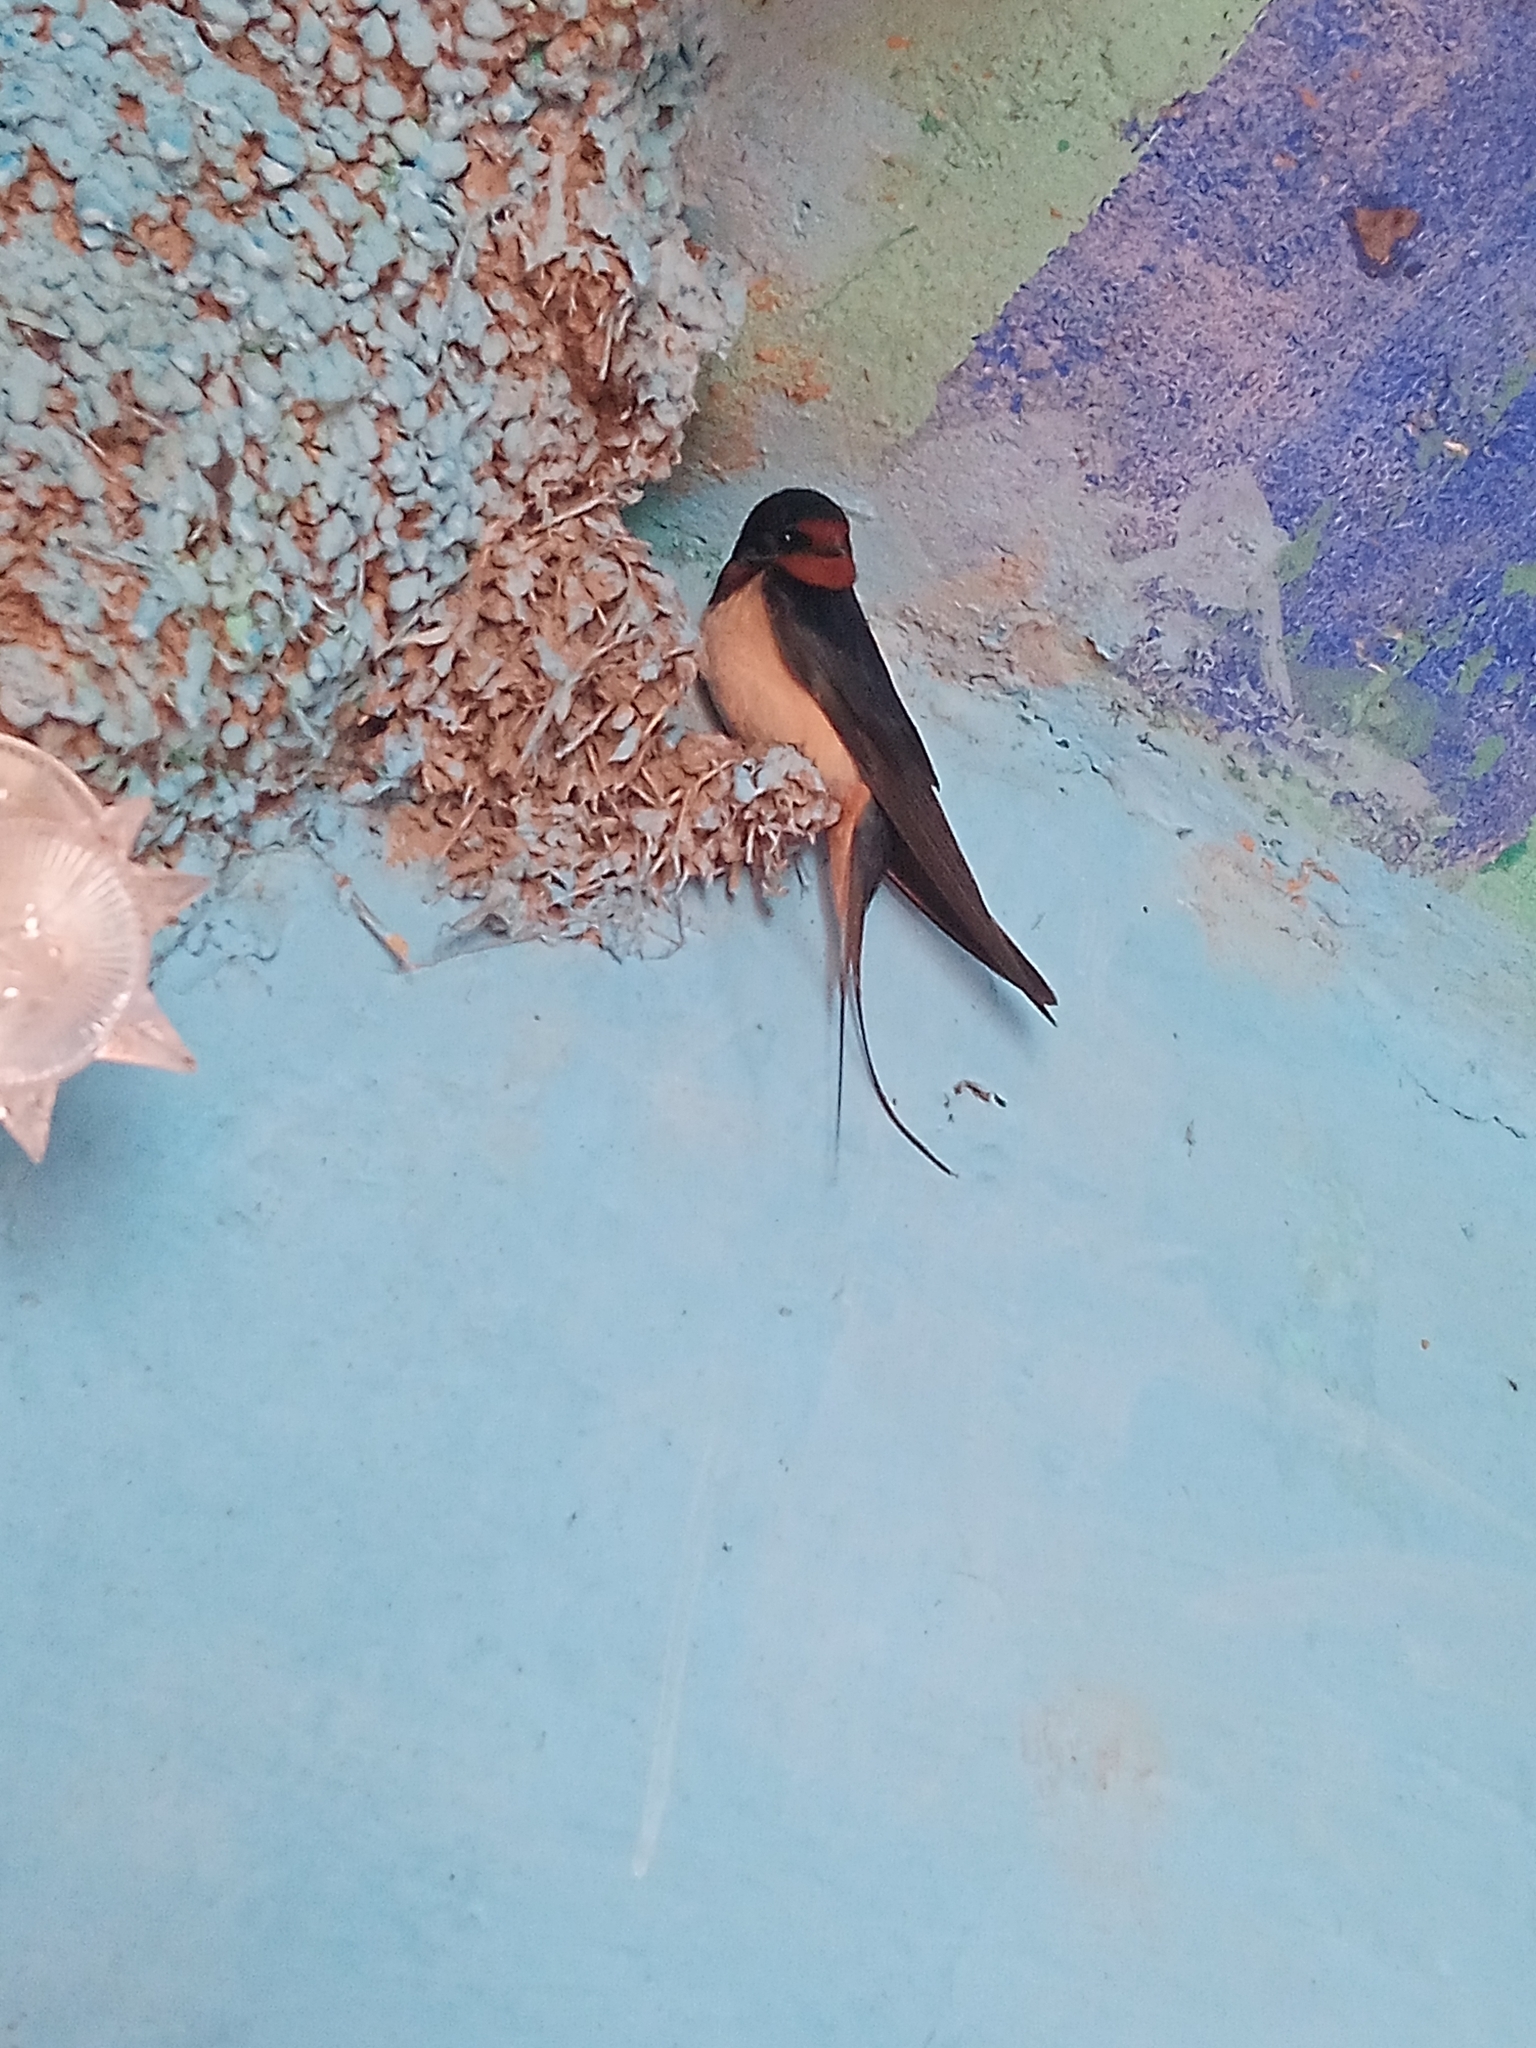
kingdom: Animalia
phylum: Chordata
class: Aves
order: Passeriformes
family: Hirundinidae
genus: Hirundo
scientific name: Hirundo rustica
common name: Barn swallow
